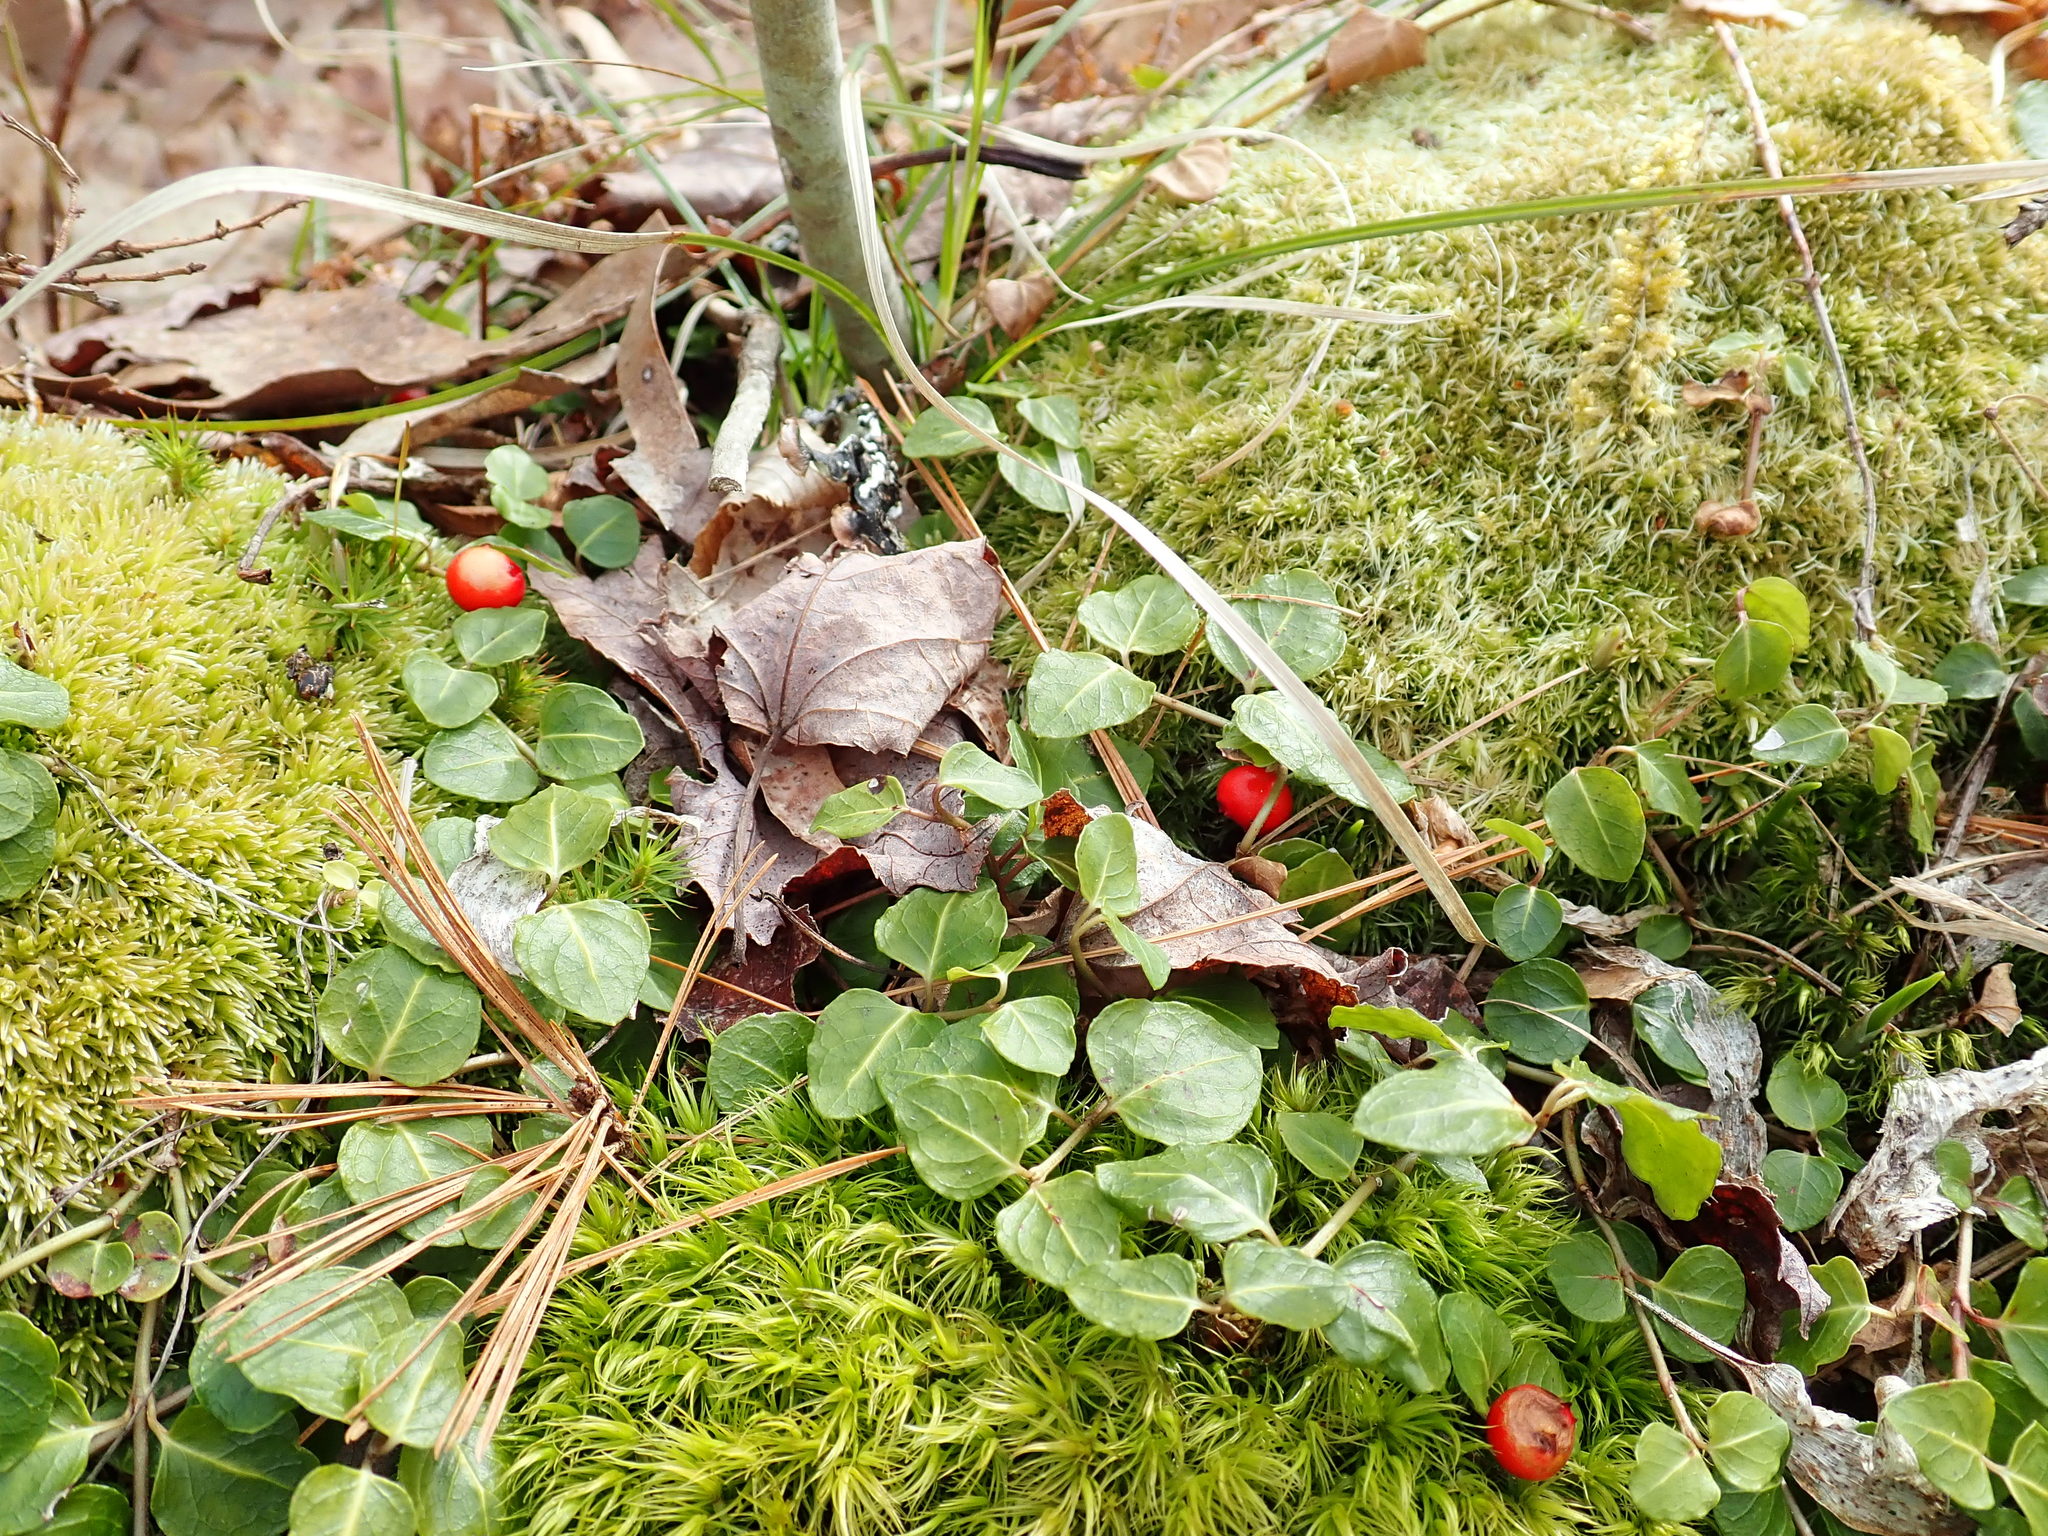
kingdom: Plantae
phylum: Tracheophyta
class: Magnoliopsida
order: Gentianales
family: Rubiaceae
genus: Mitchella
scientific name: Mitchella repens
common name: Partridge-berry
